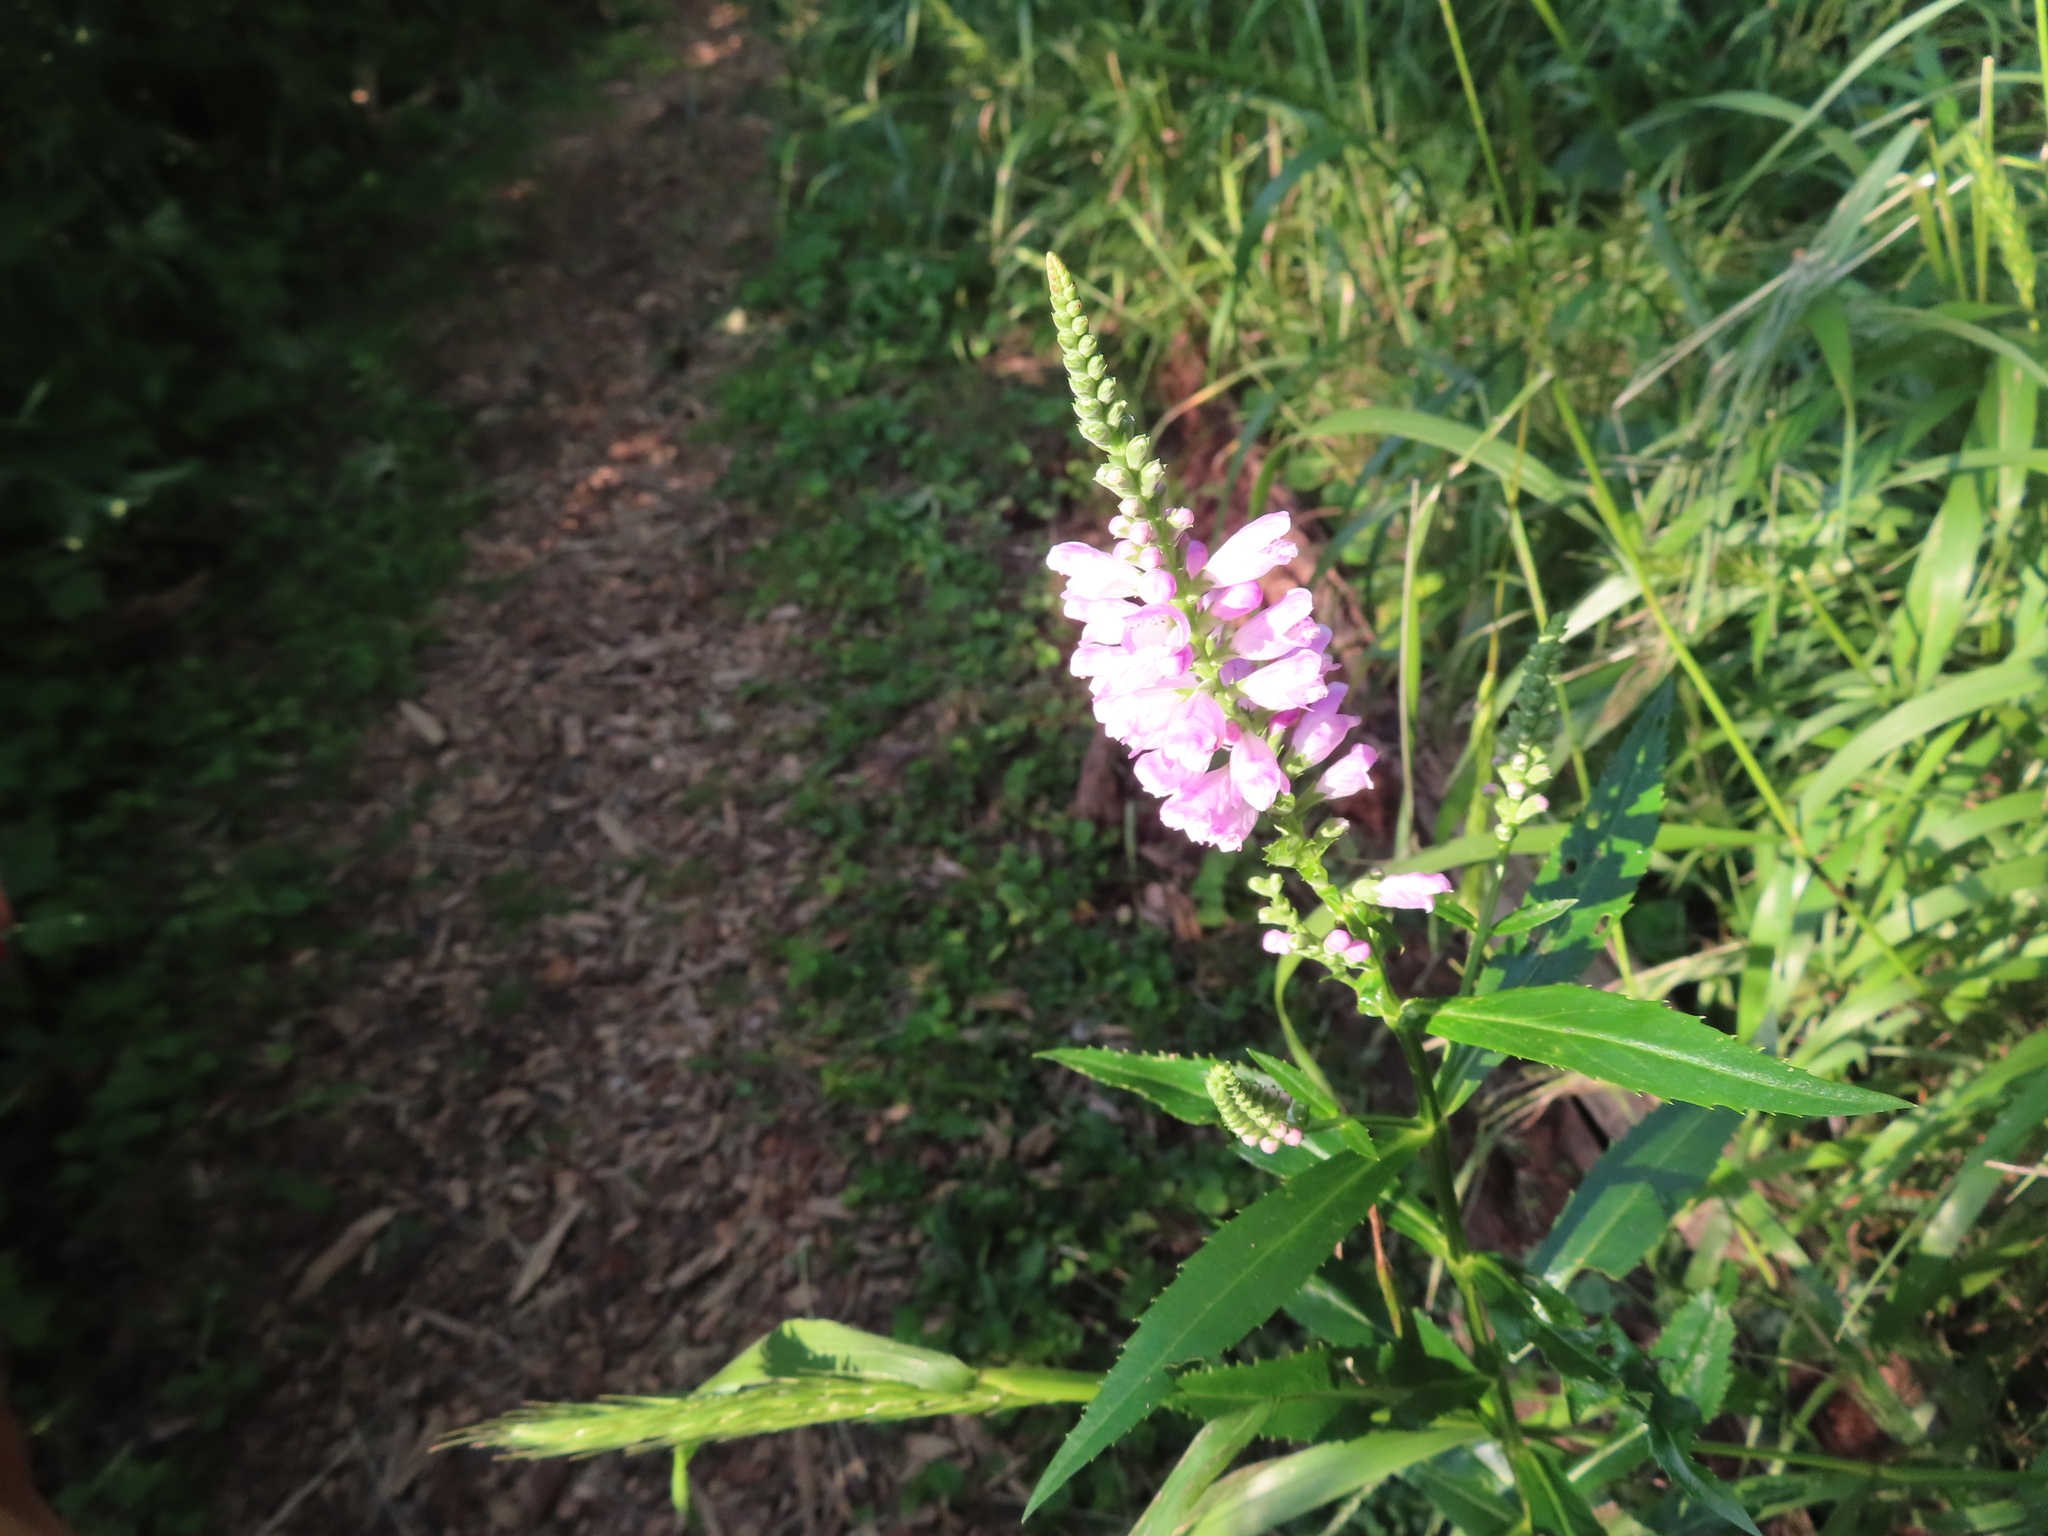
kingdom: Plantae
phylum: Tracheophyta
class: Magnoliopsida
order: Lamiales
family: Lamiaceae
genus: Physostegia
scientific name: Physostegia virginiana
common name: Obedient-plant
